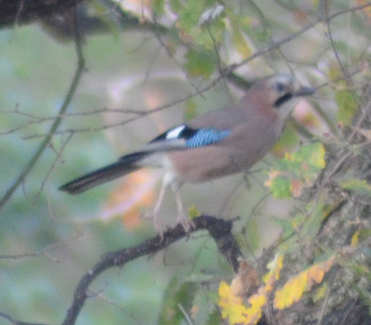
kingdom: Animalia
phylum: Chordata
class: Aves
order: Passeriformes
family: Corvidae
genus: Garrulus
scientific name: Garrulus glandarius
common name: Eurasian jay
